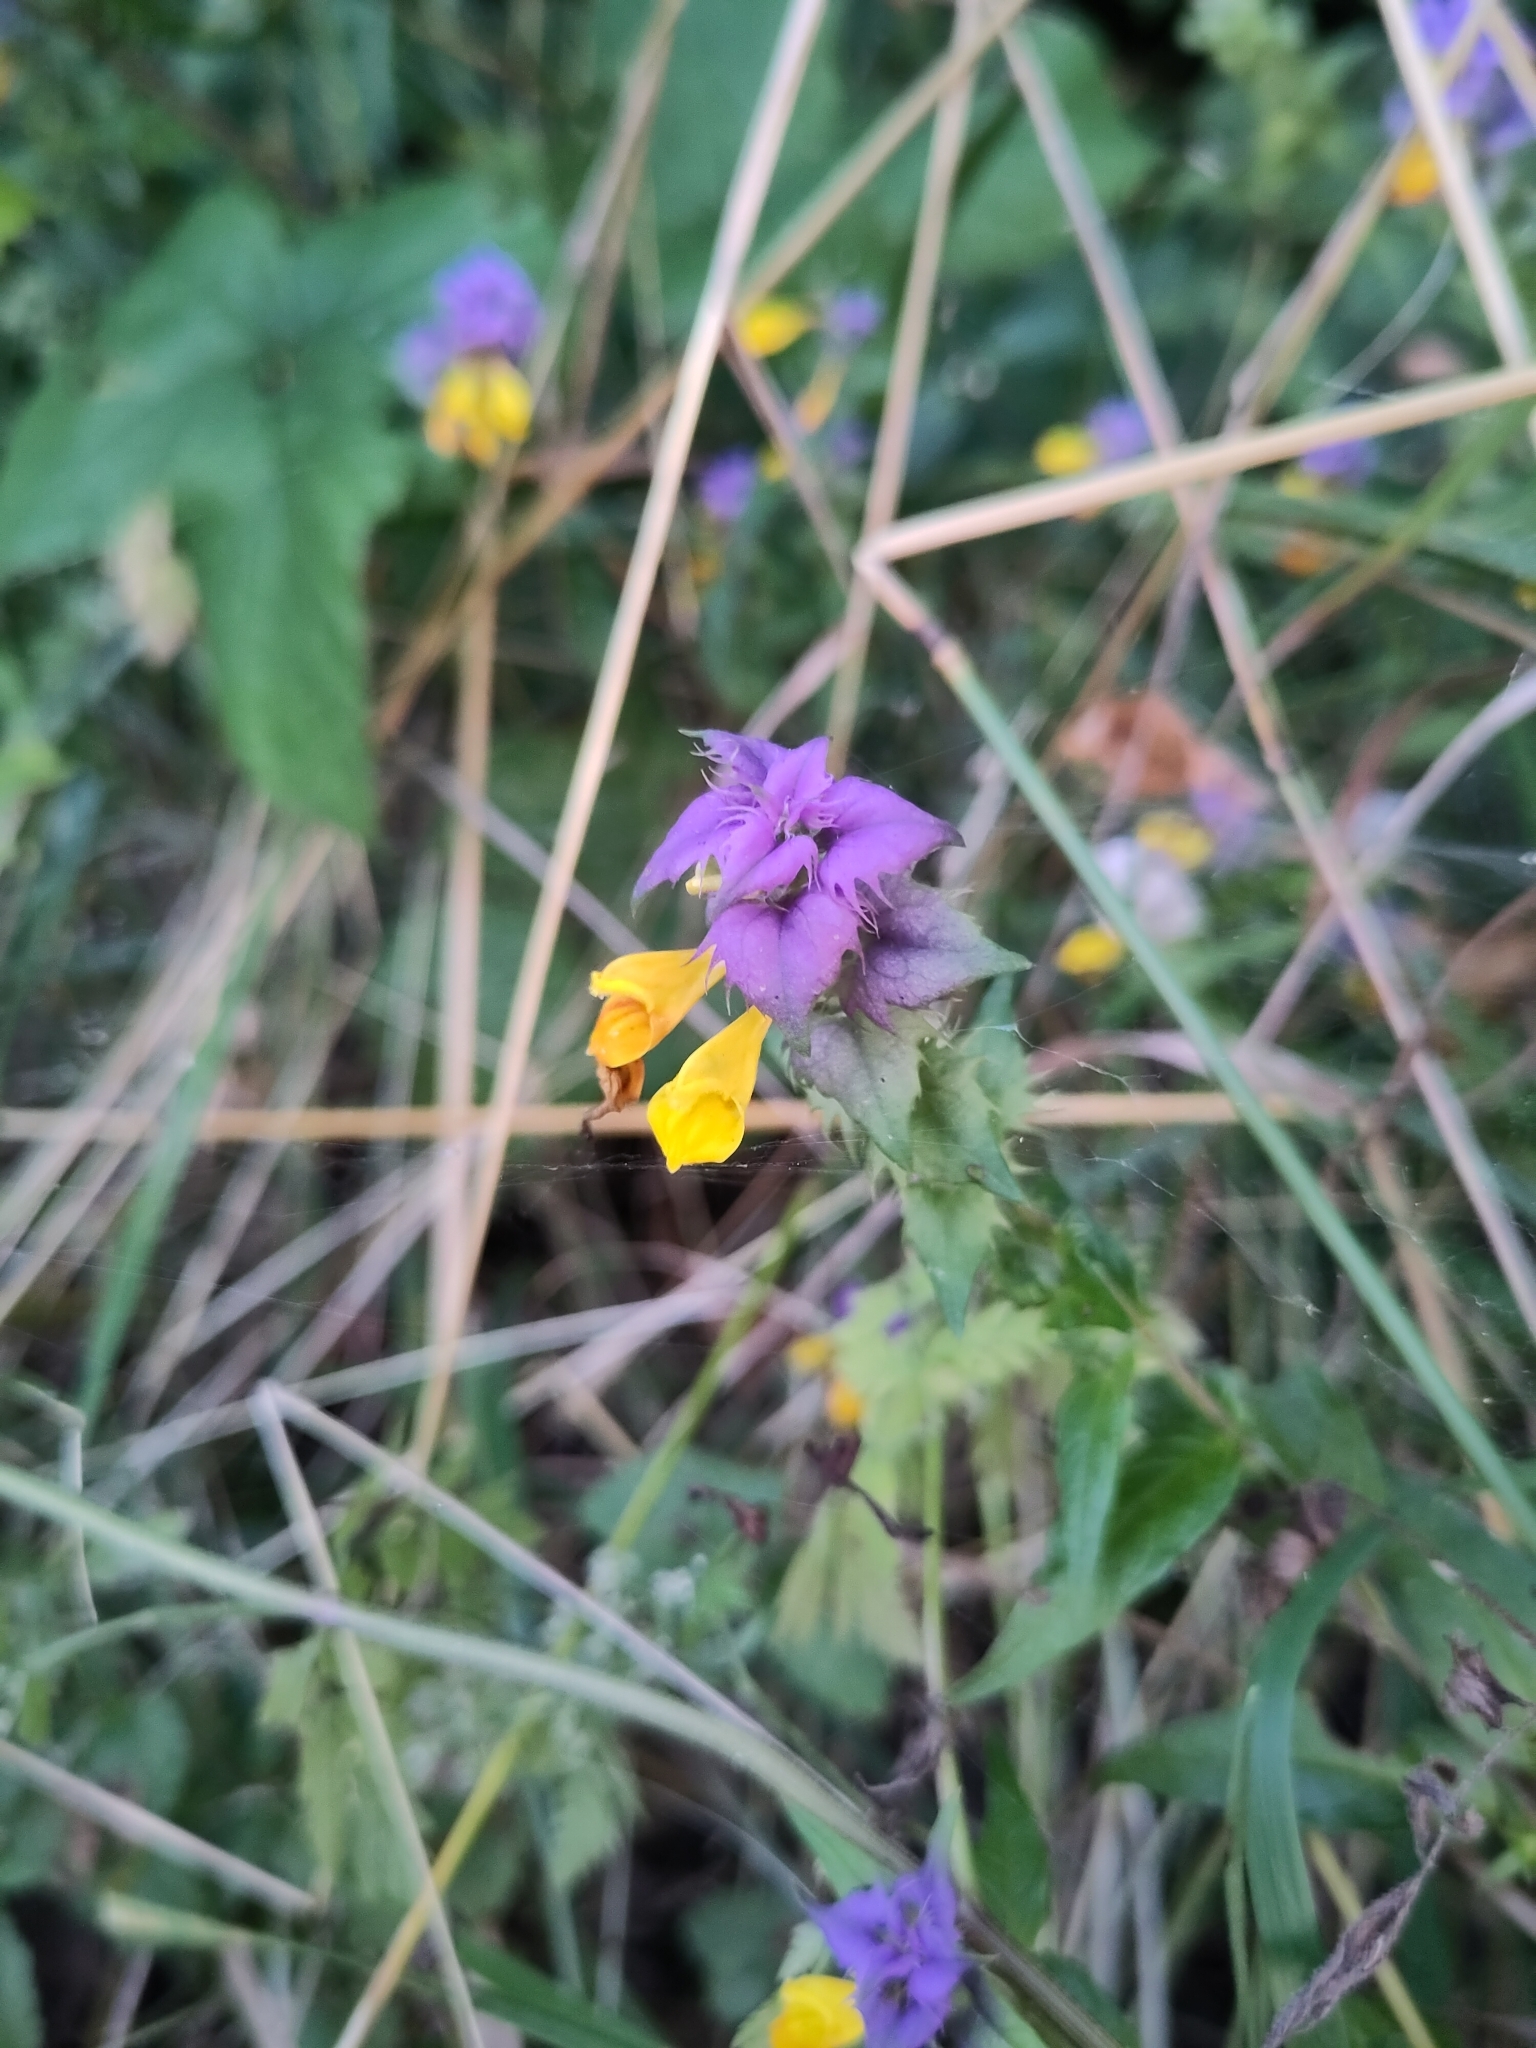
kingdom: Plantae
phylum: Tracheophyta
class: Magnoliopsida
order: Lamiales
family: Orobanchaceae
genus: Melampyrum
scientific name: Melampyrum nemorosum
